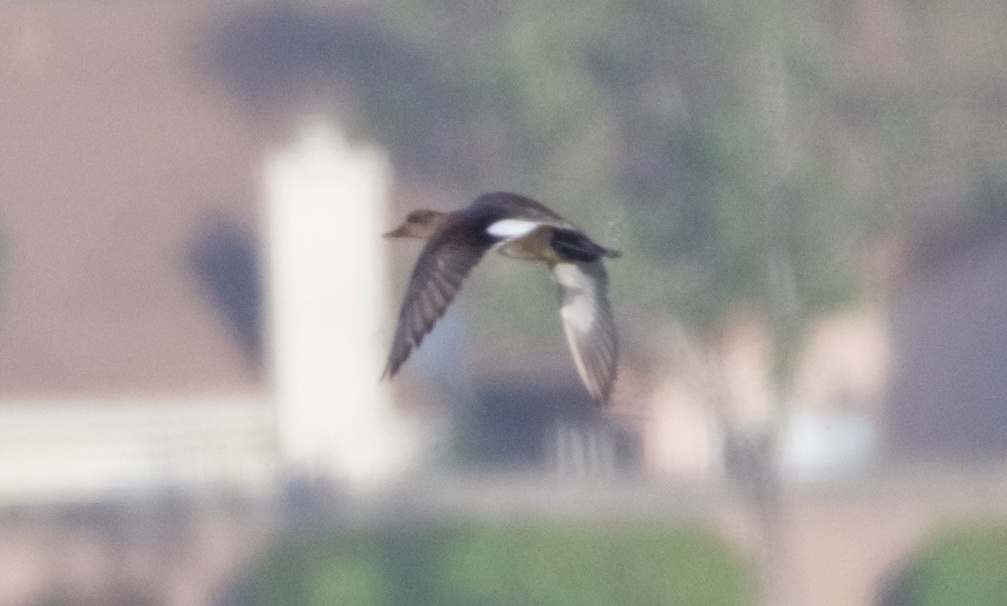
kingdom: Animalia
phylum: Chordata
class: Aves
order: Anseriformes
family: Anatidae
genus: Mareca
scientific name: Mareca strepera
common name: Gadwall
